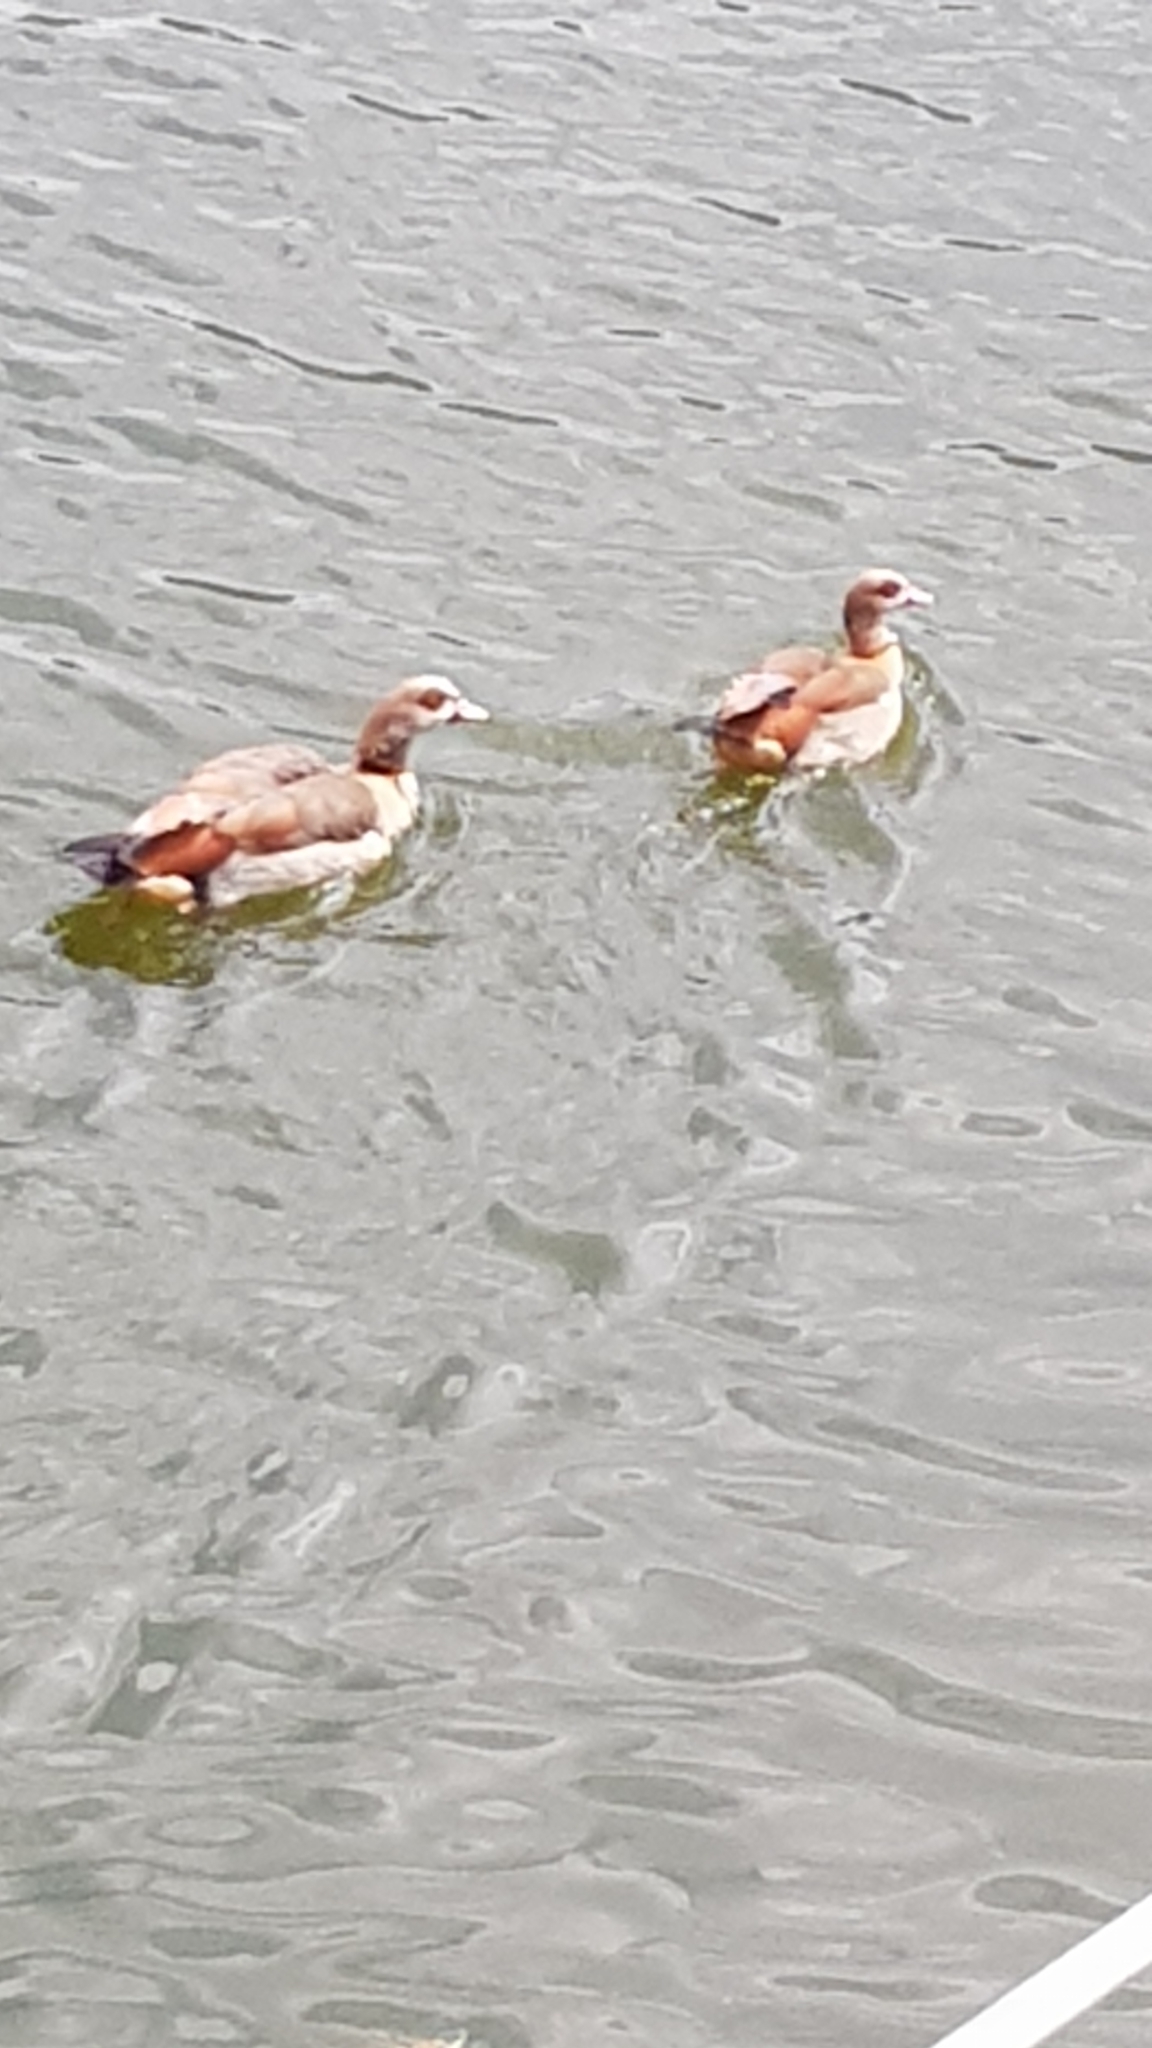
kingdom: Animalia
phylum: Chordata
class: Aves
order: Anseriformes
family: Anatidae
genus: Alopochen
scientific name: Alopochen aegyptiaca
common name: Egyptian goose
